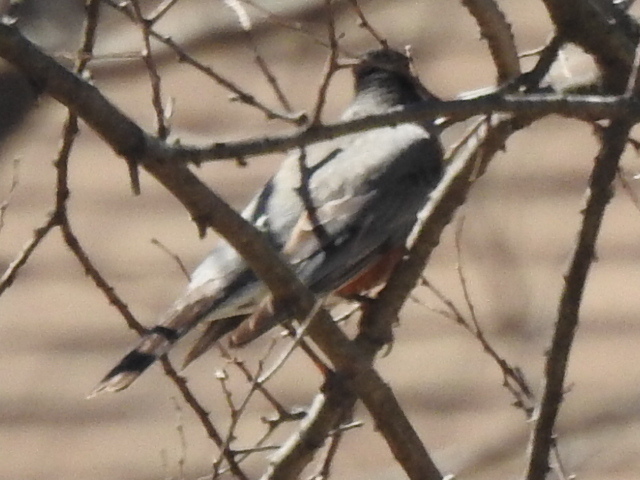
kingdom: Animalia
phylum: Chordata
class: Aves
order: Passeriformes
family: Turdidae
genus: Turdus
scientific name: Turdus migratorius
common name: American robin
